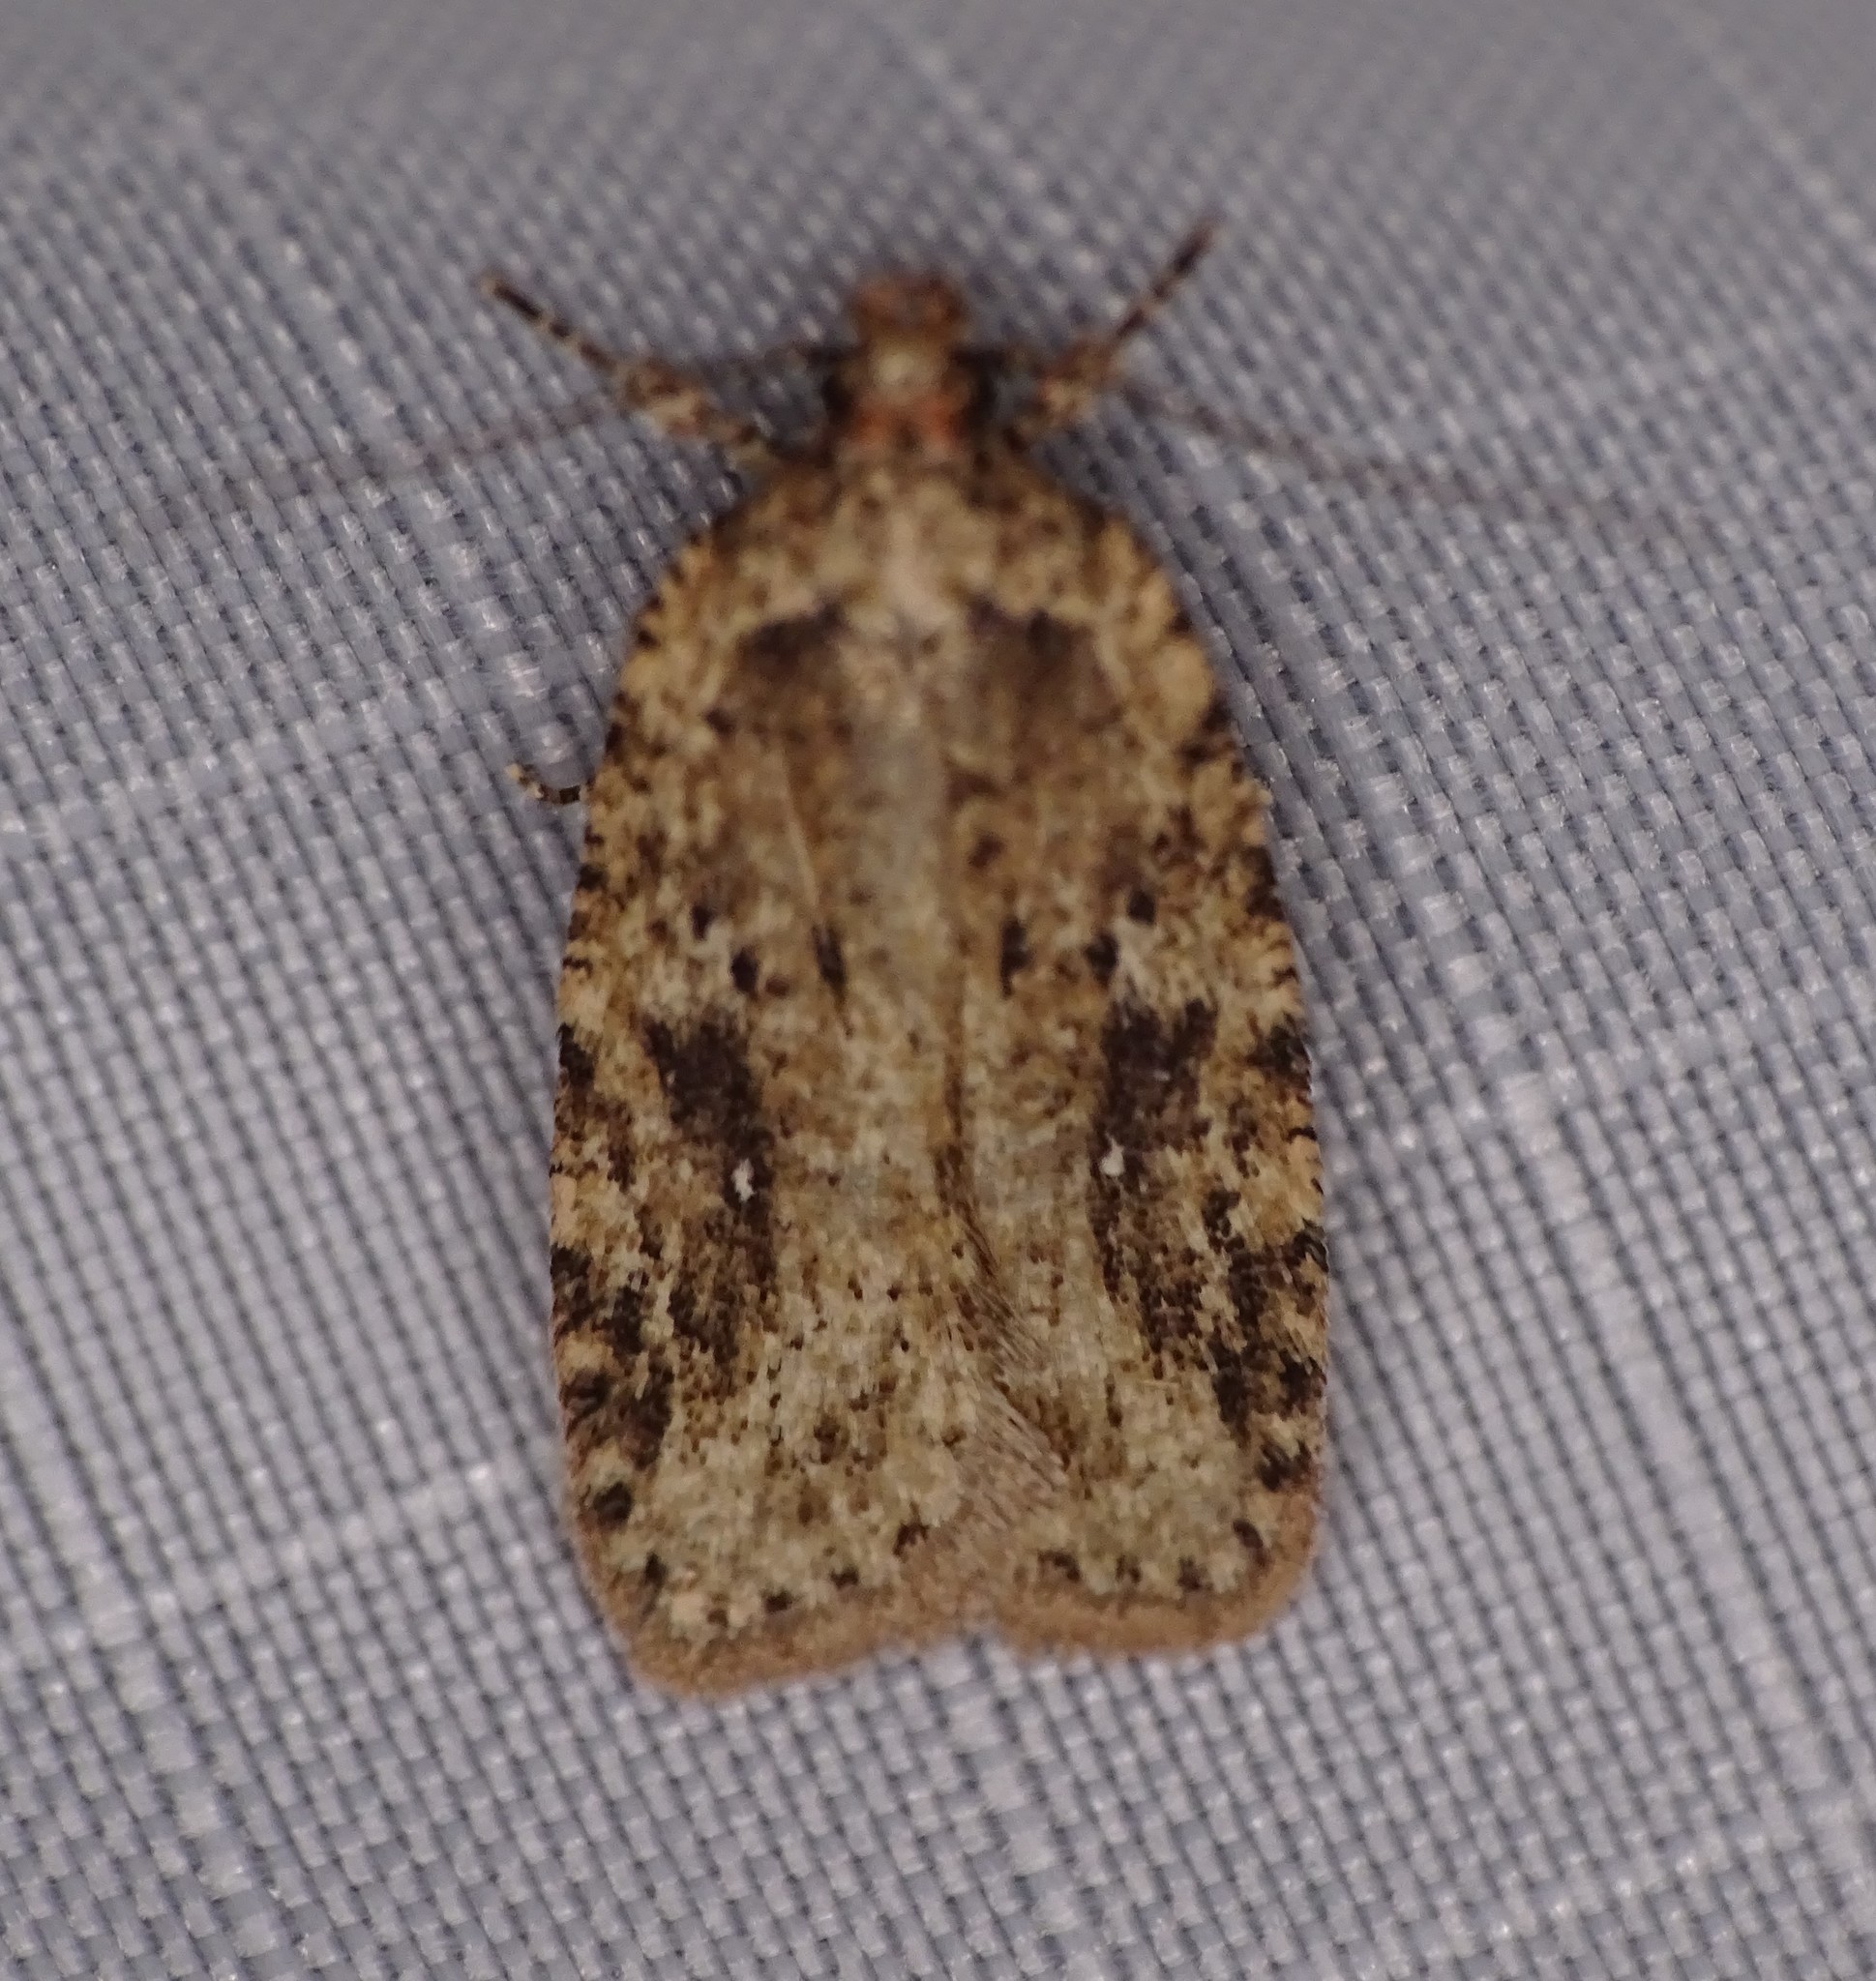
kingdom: Animalia
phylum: Arthropoda
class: Insecta
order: Lepidoptera
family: Depressariidae
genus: Agonopterix
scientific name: Agonopterix pulvipennella
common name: Goldenrod leafffolder
